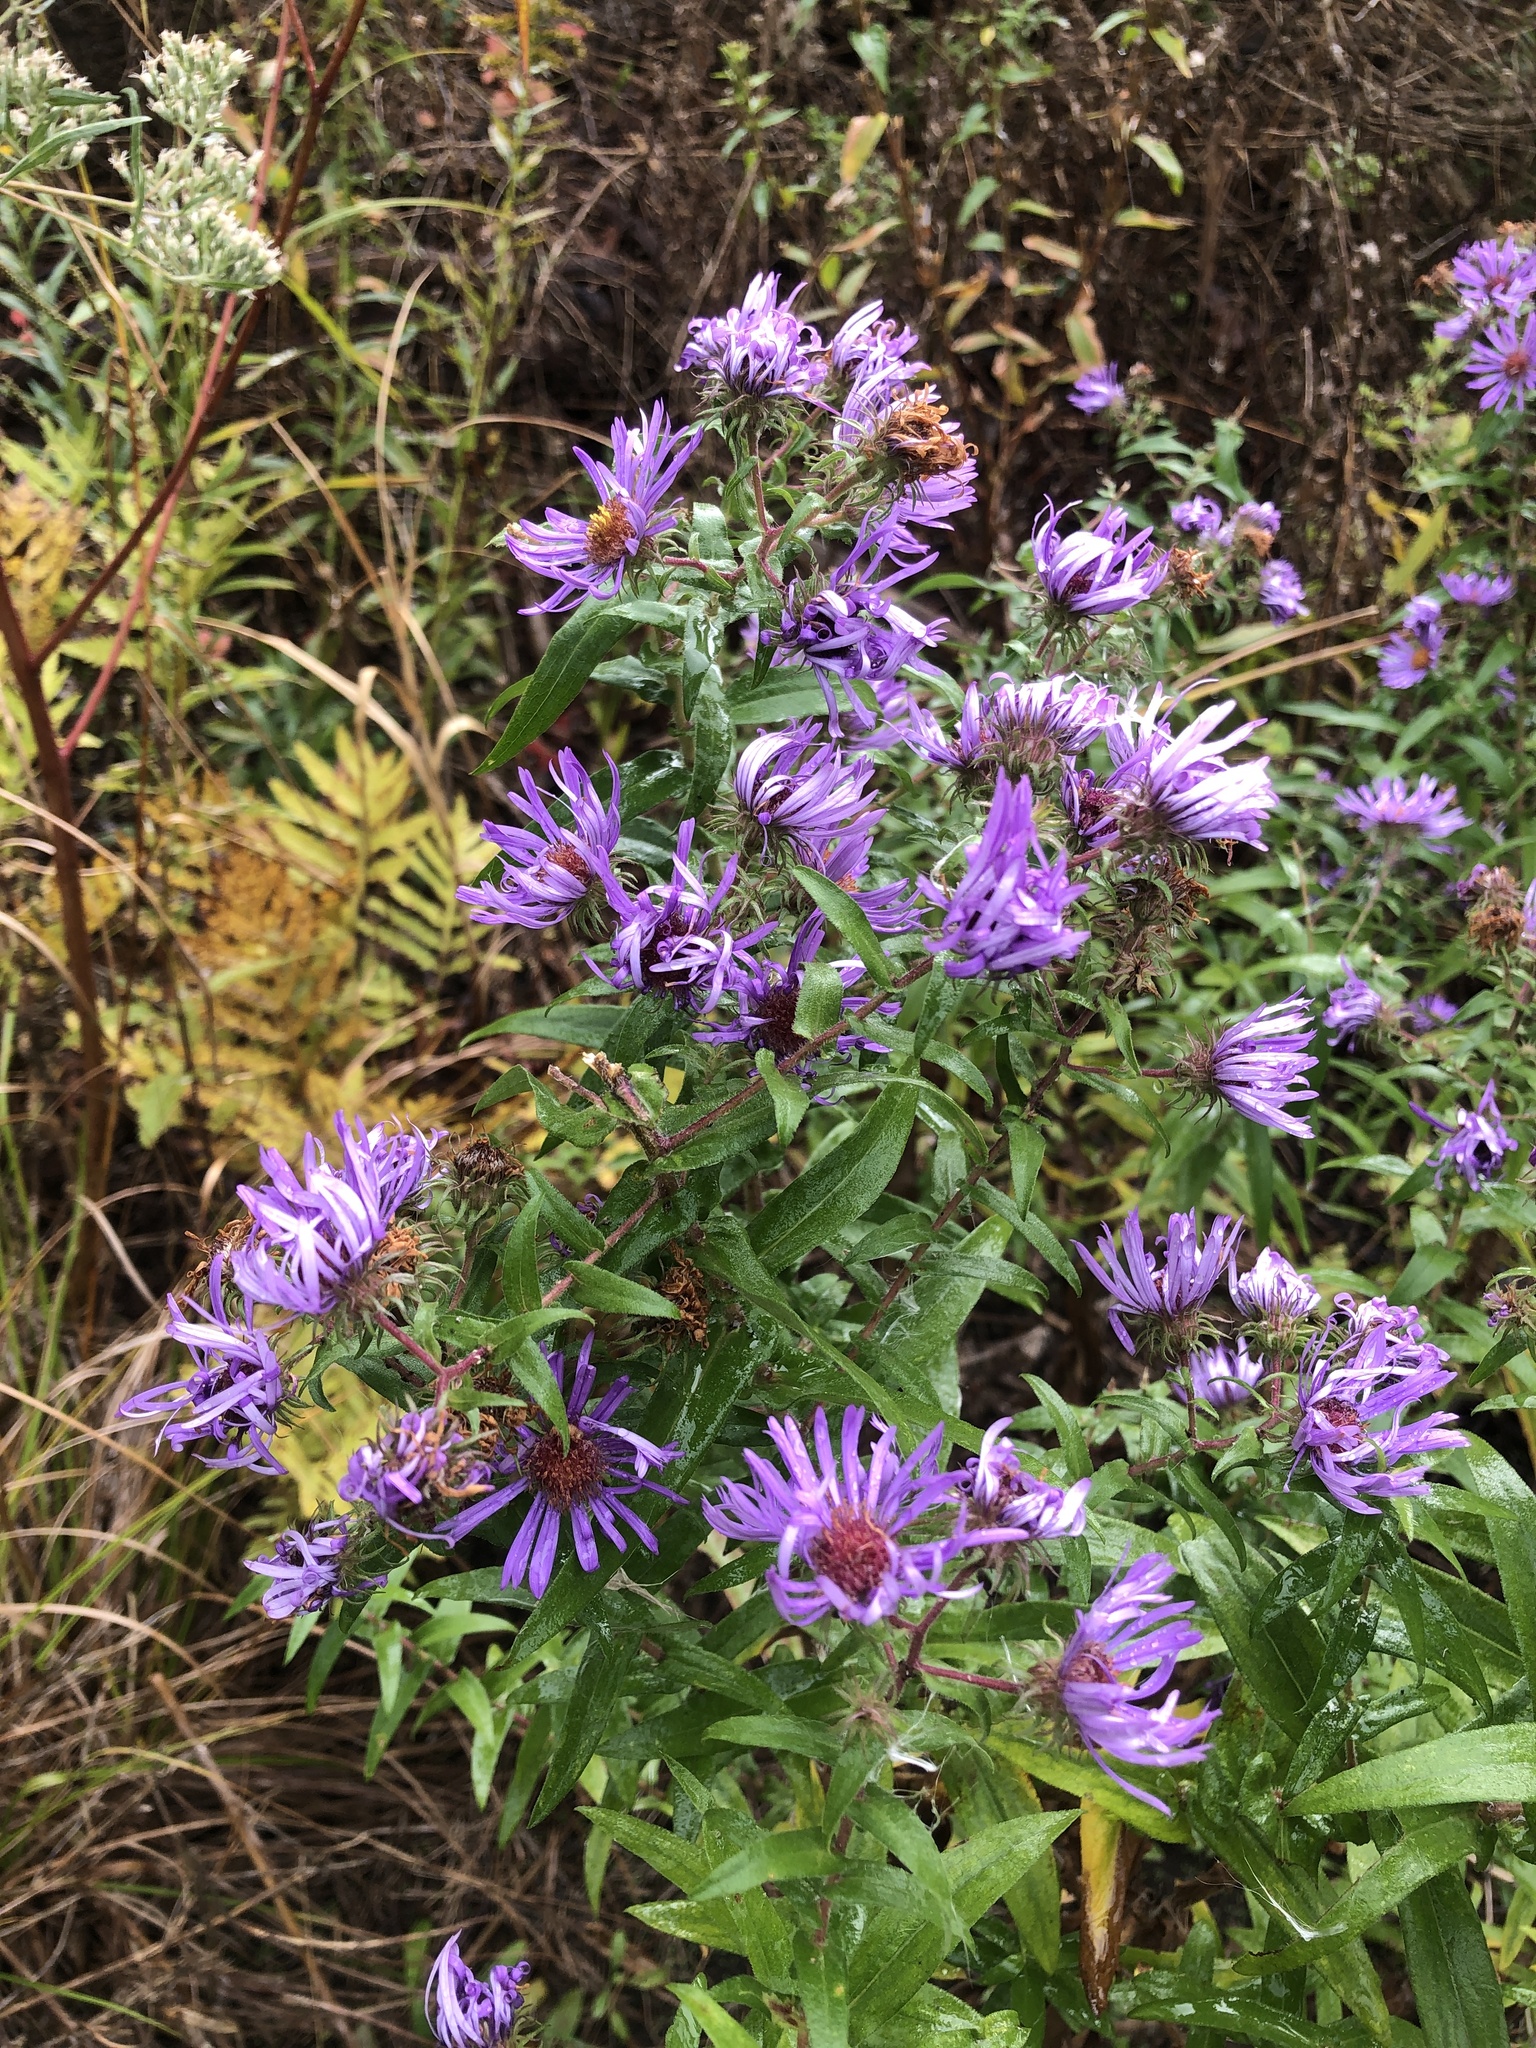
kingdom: Plantae
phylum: Tracheophyta
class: Magnoliopsida
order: Asterales
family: Asteraceae
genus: Symphyotrichum
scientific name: Symphyotrichum novae-angliae
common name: Michaelmas daisy
